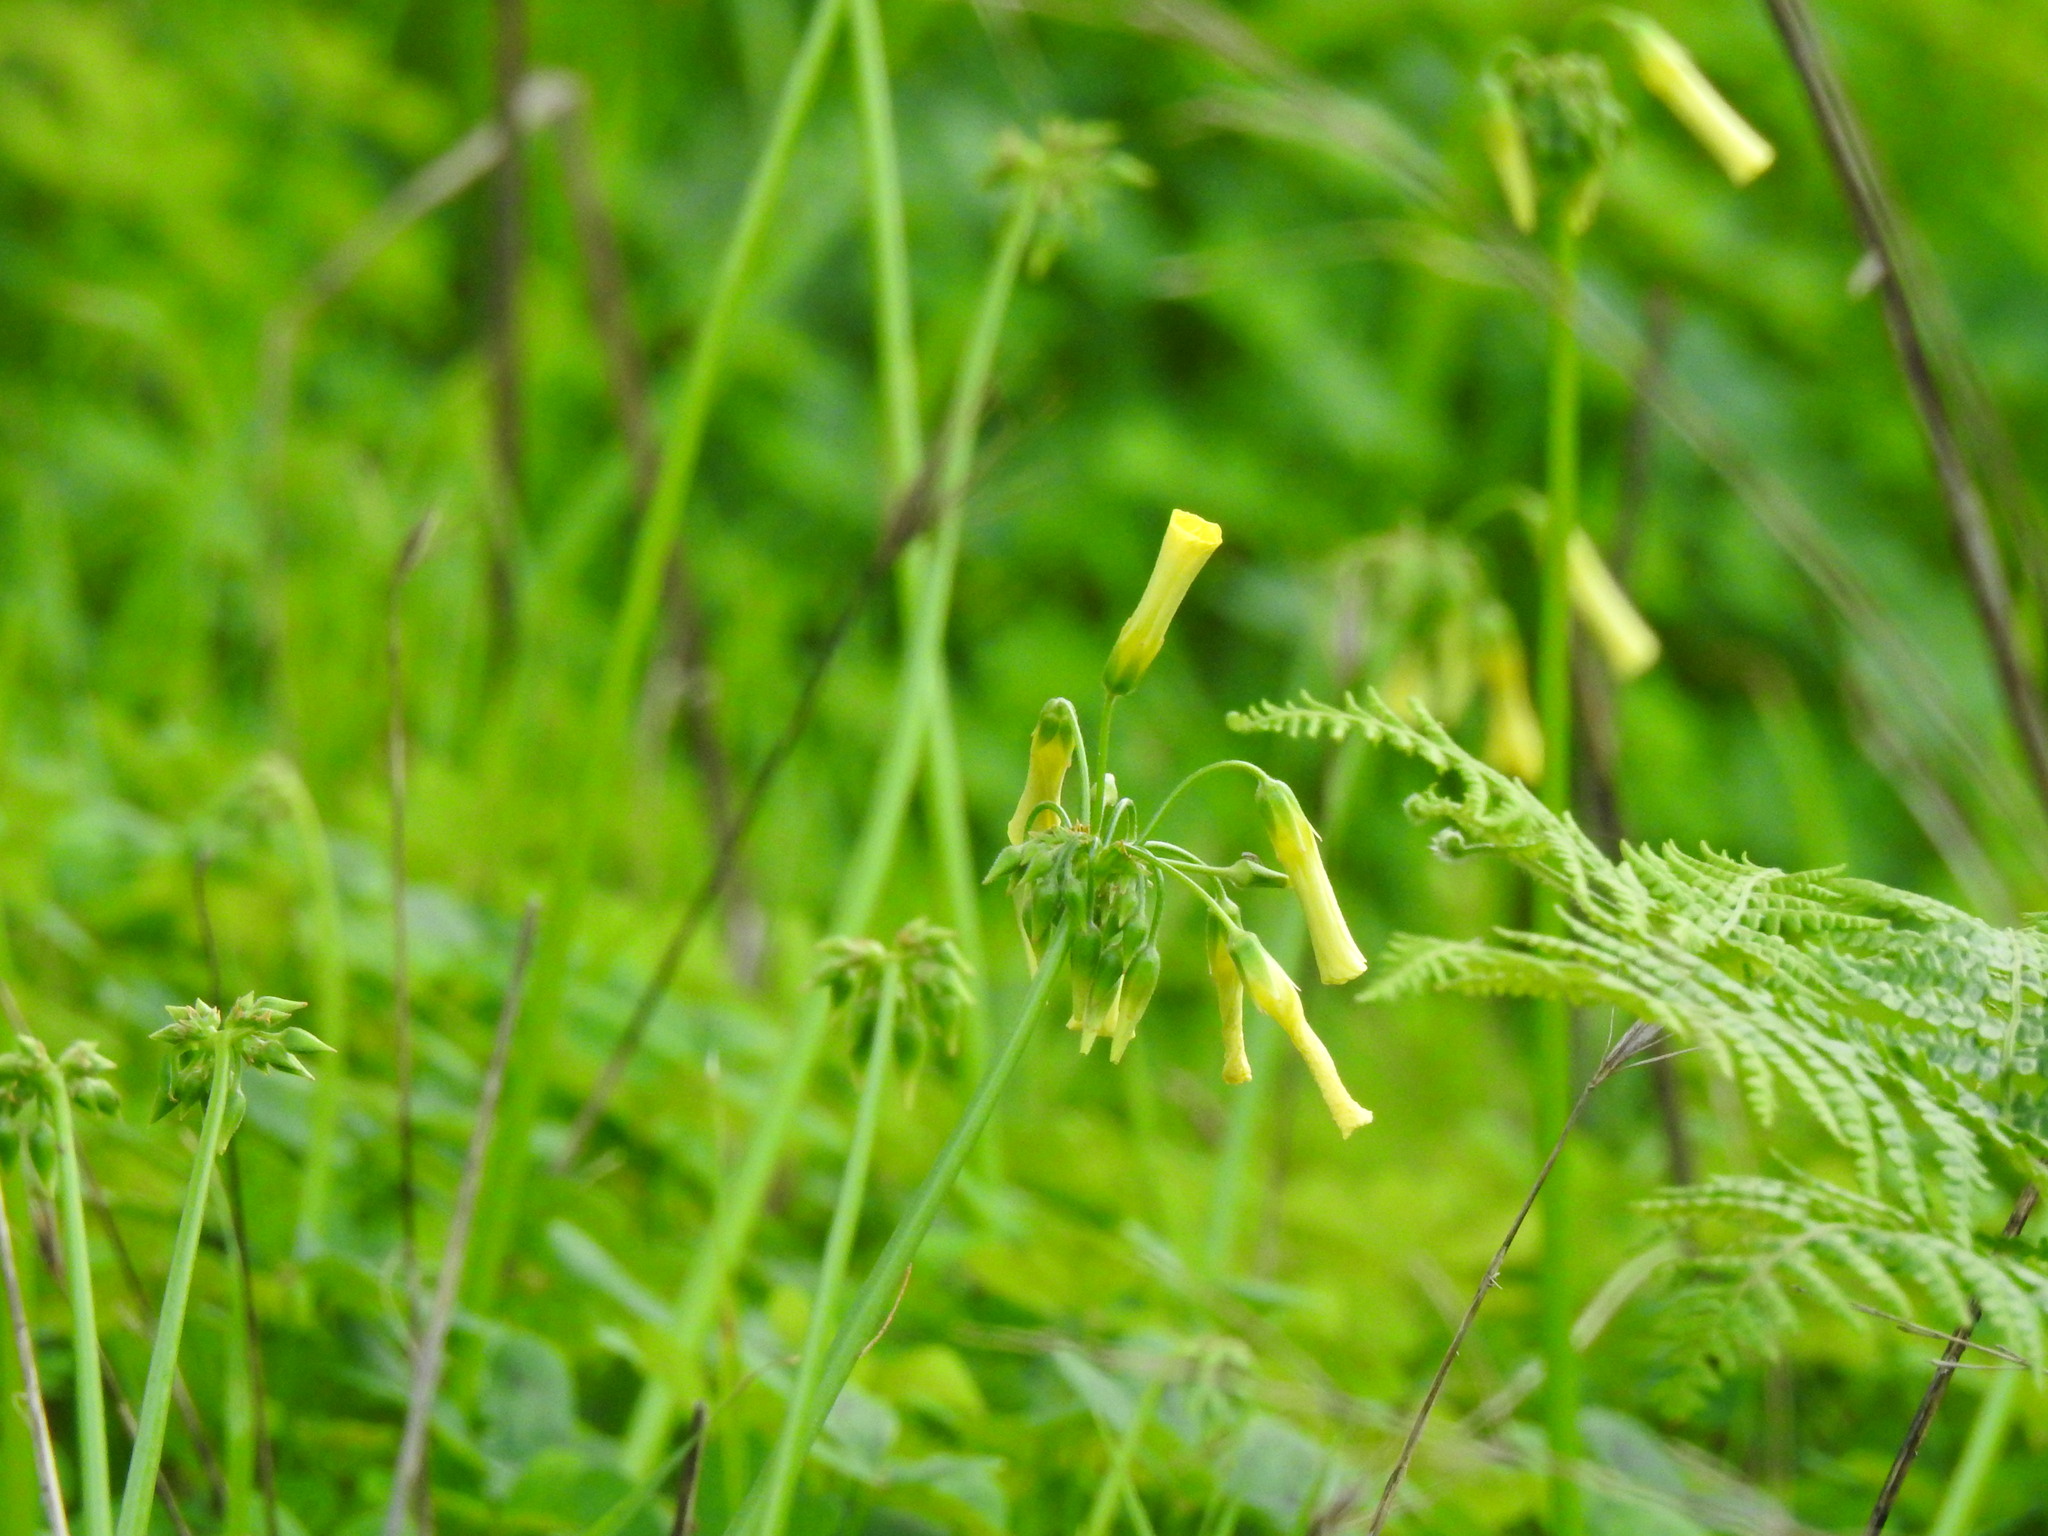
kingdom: Plantae
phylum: Tracheophyta
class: Magnoliopsida
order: Oxalidales
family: Oxalidaceae
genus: Oxalis
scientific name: Oxalis pes-caprae
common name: Bermuda-buttercup
